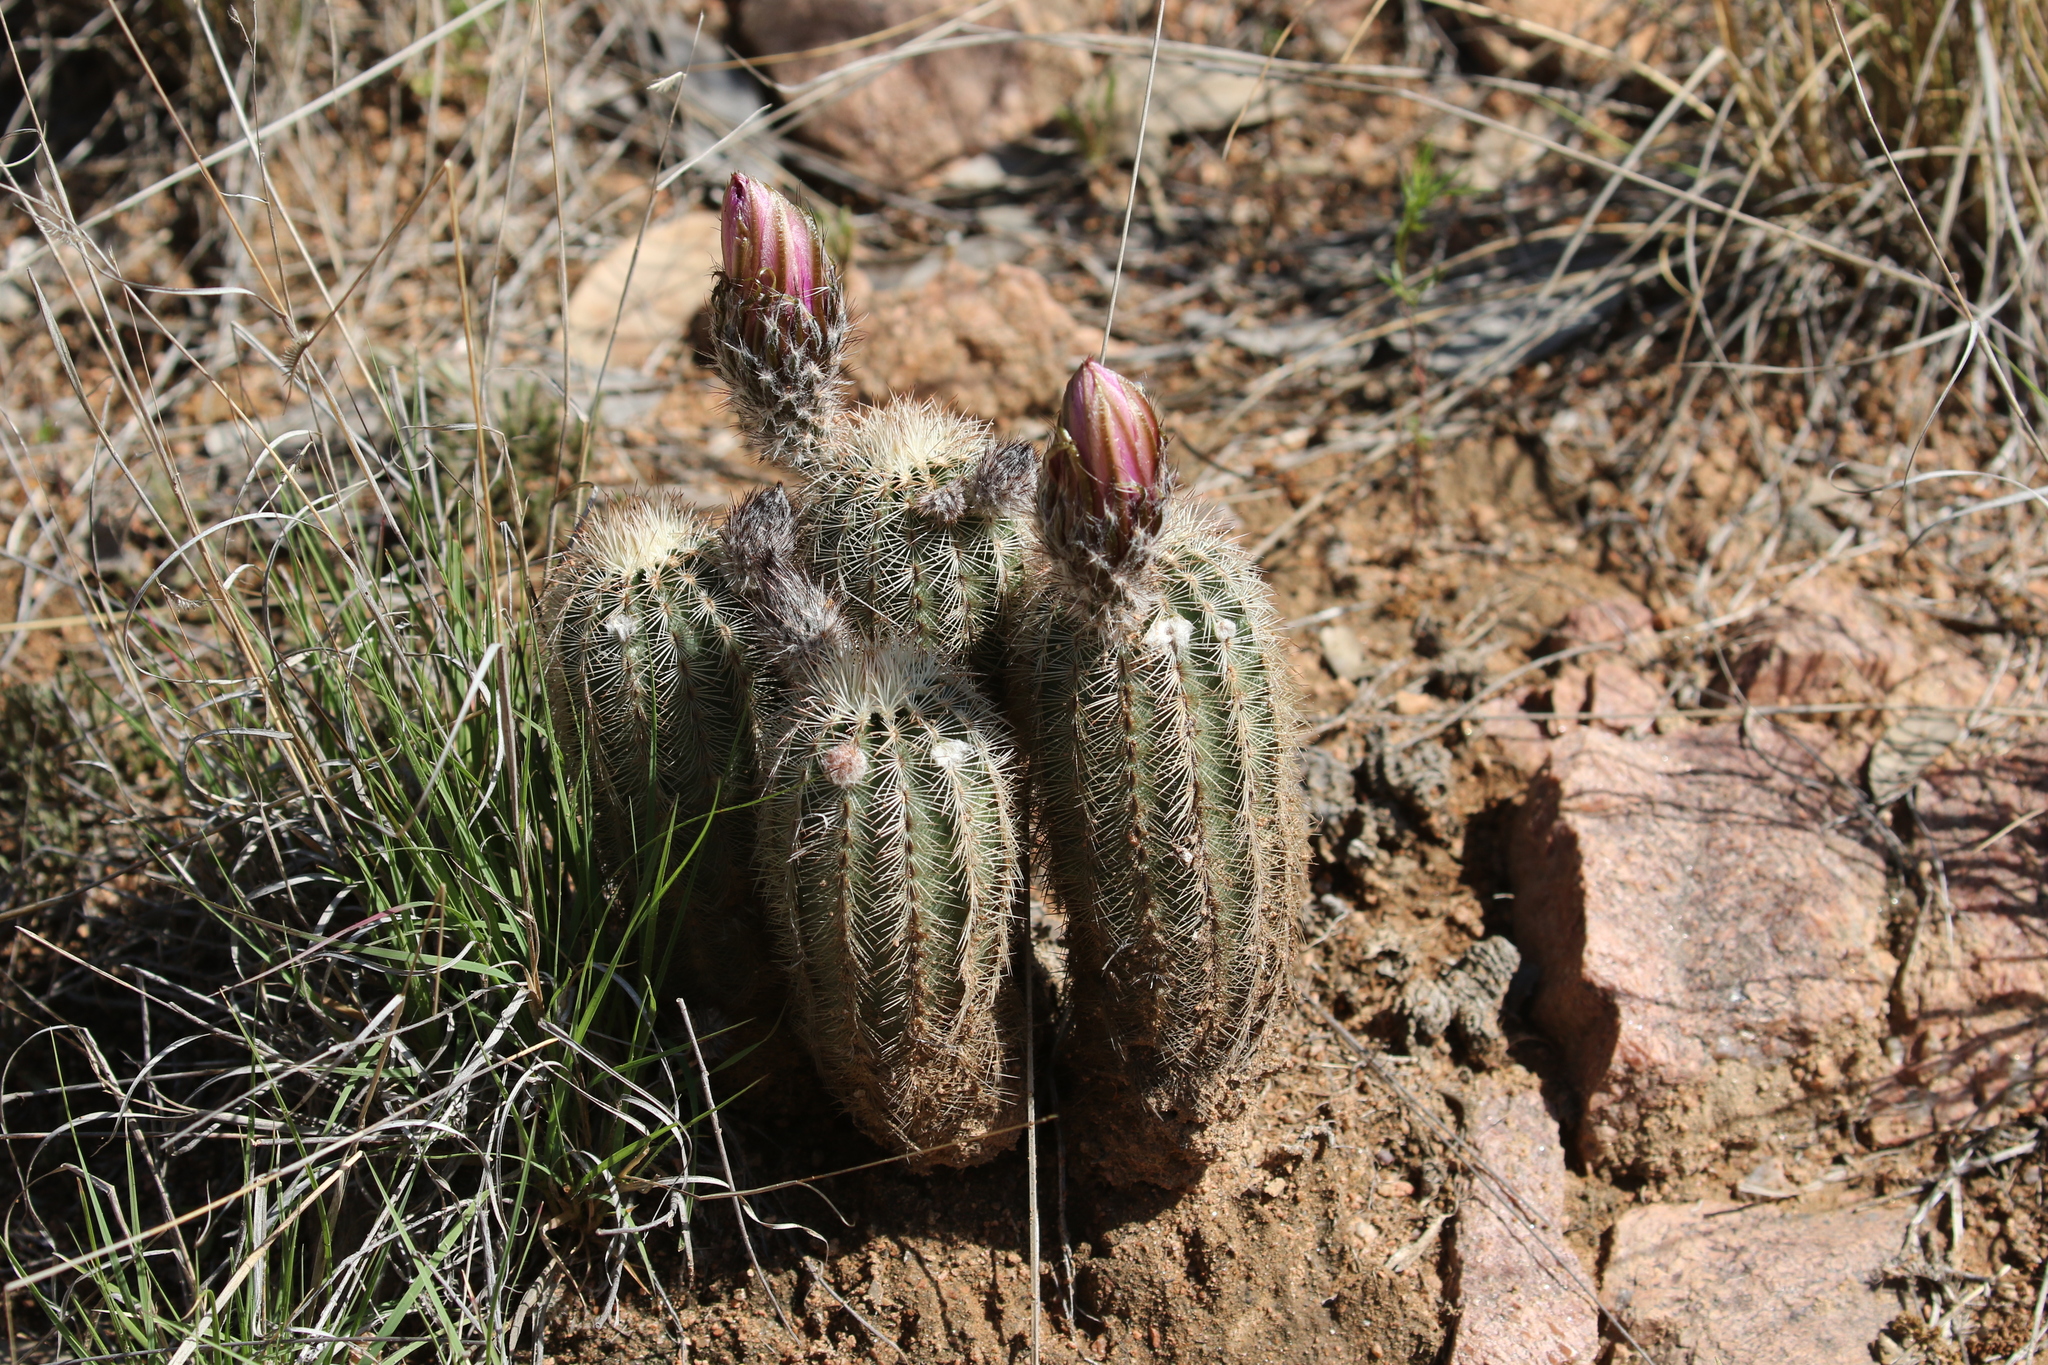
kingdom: Plantae
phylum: Tracheophyta
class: Magnoliopsida
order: Caryophyllales
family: Cactaceae
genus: Echinocereus
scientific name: Echinocereus reichenbachii
